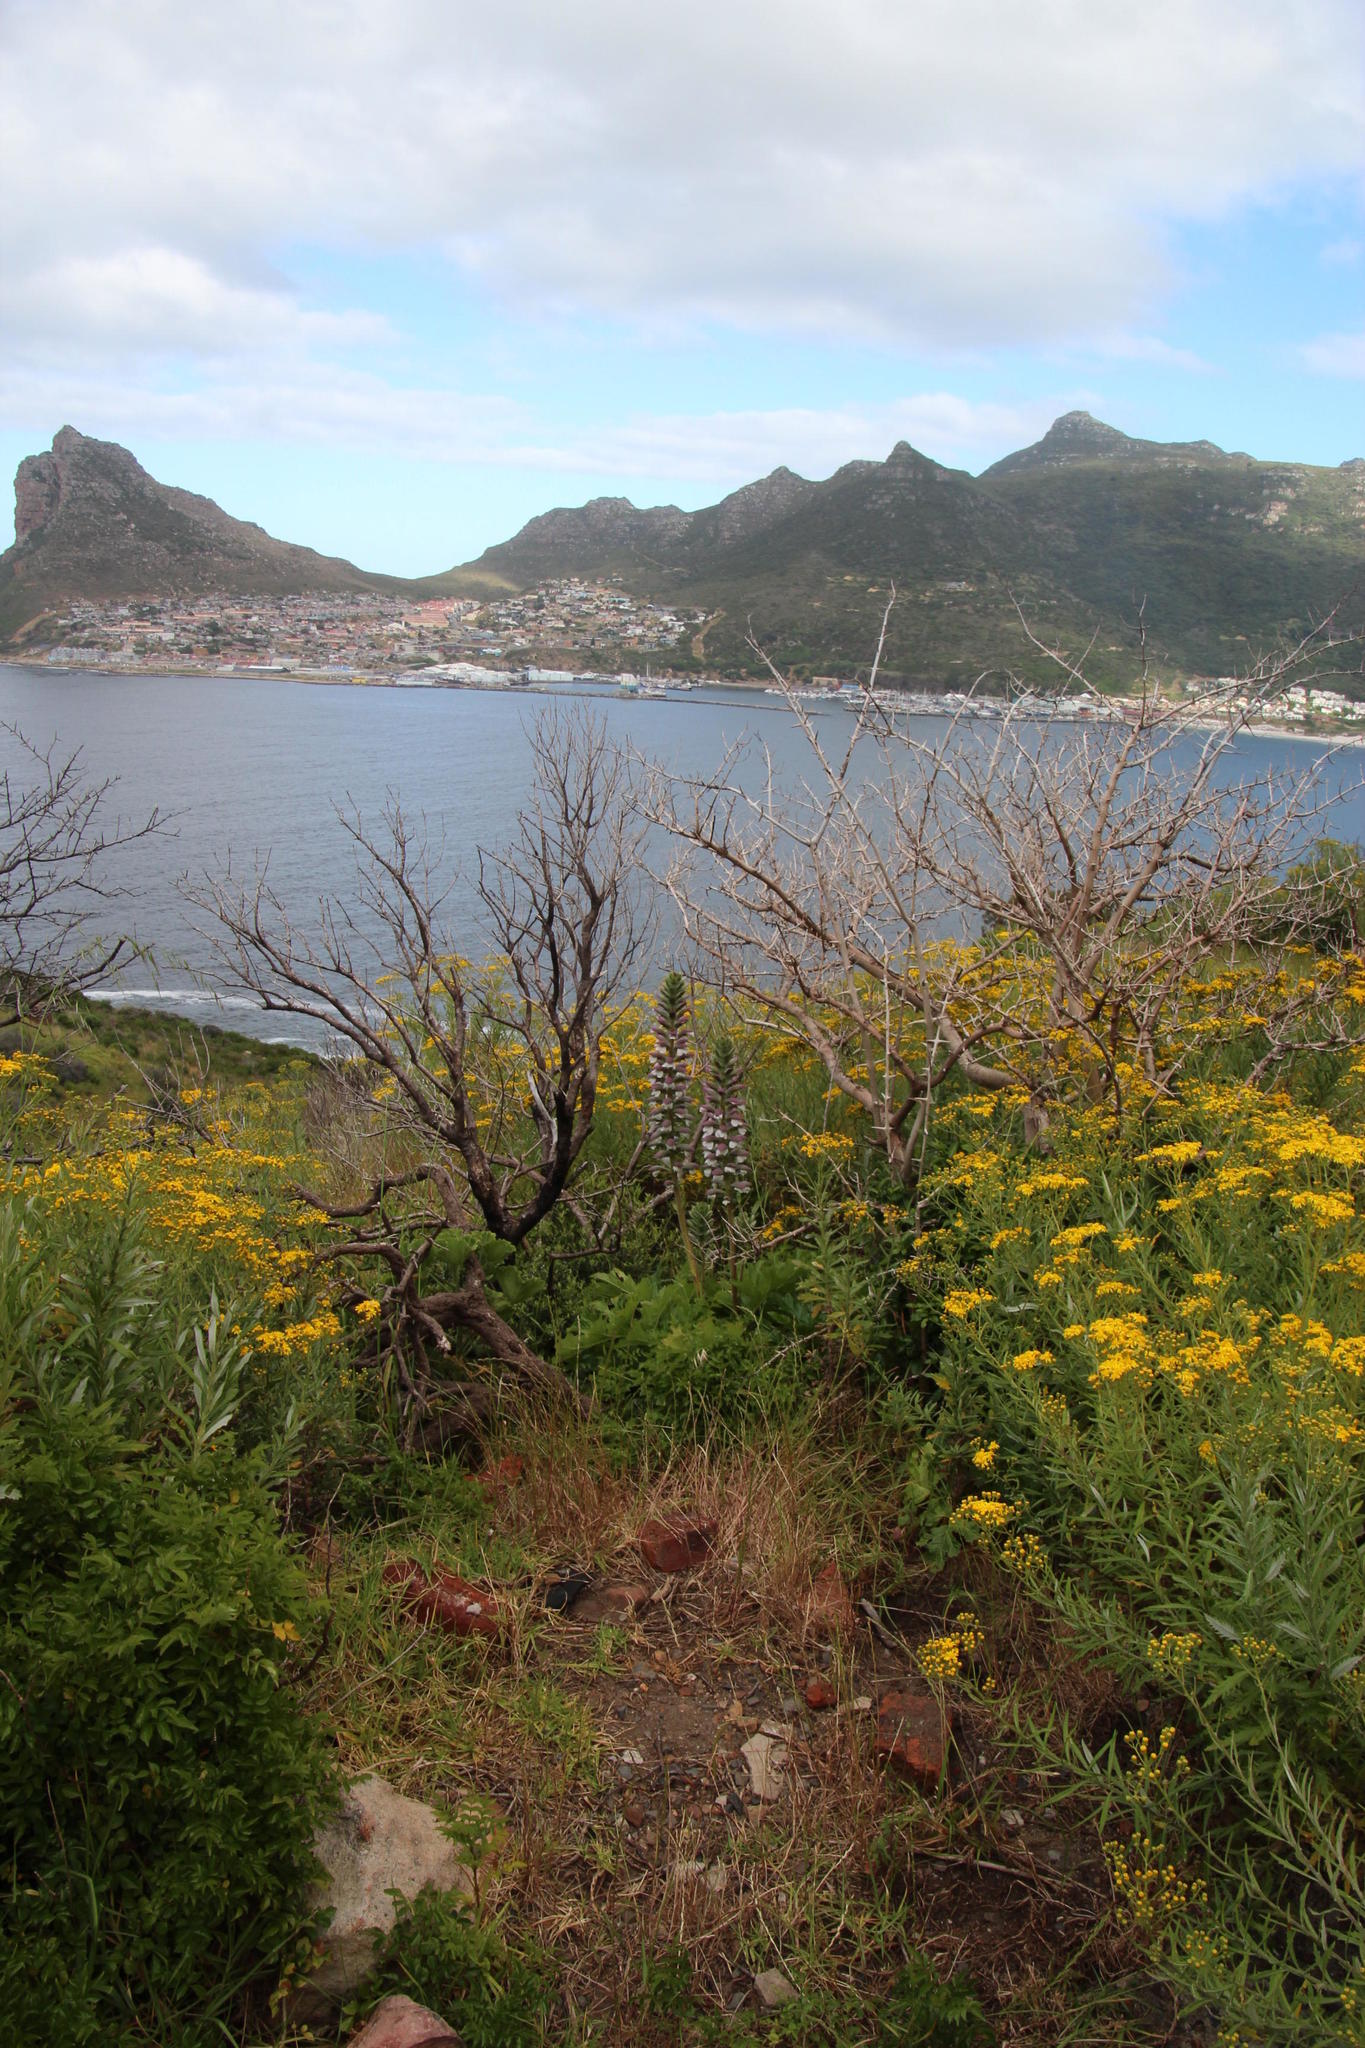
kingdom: Plantae
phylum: Tracheophyta
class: Magnoliopsida
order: Lamiales
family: Acanthaceae
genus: Acanthus
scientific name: Acanthus mollis
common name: Bear's-breech
